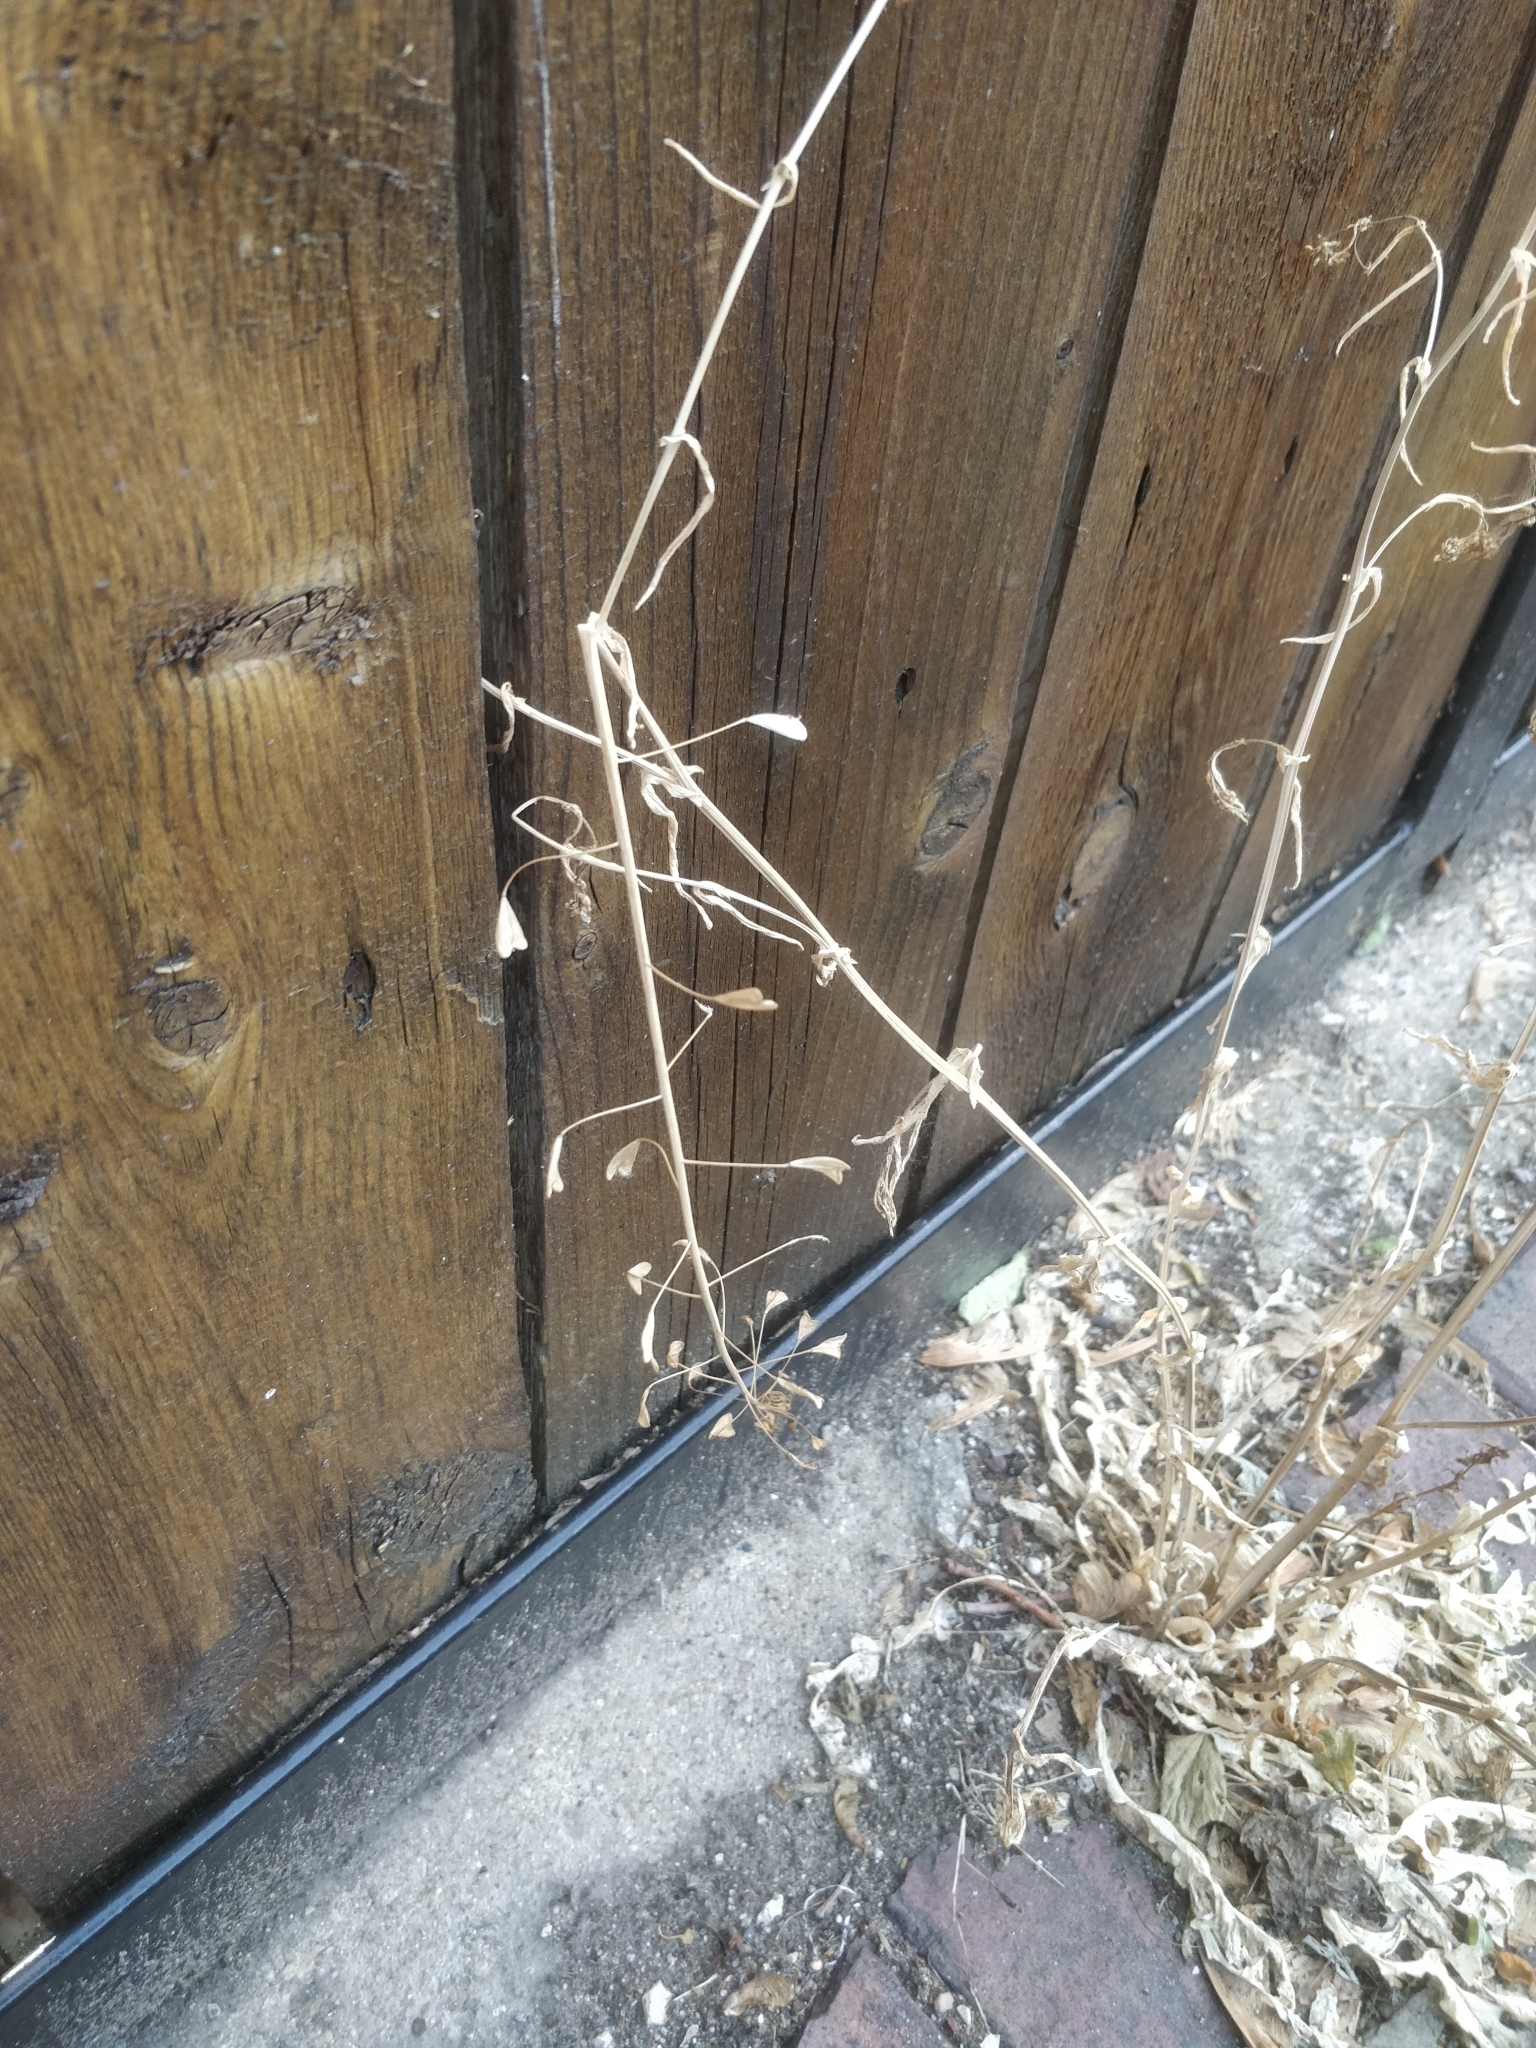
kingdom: Plantae
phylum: Tracheophyta
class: Magnoliopsida
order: Brassicales
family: Brassicaceae
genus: Capsella
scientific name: Capsella bursa-pastoris
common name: Shepherd's purse
